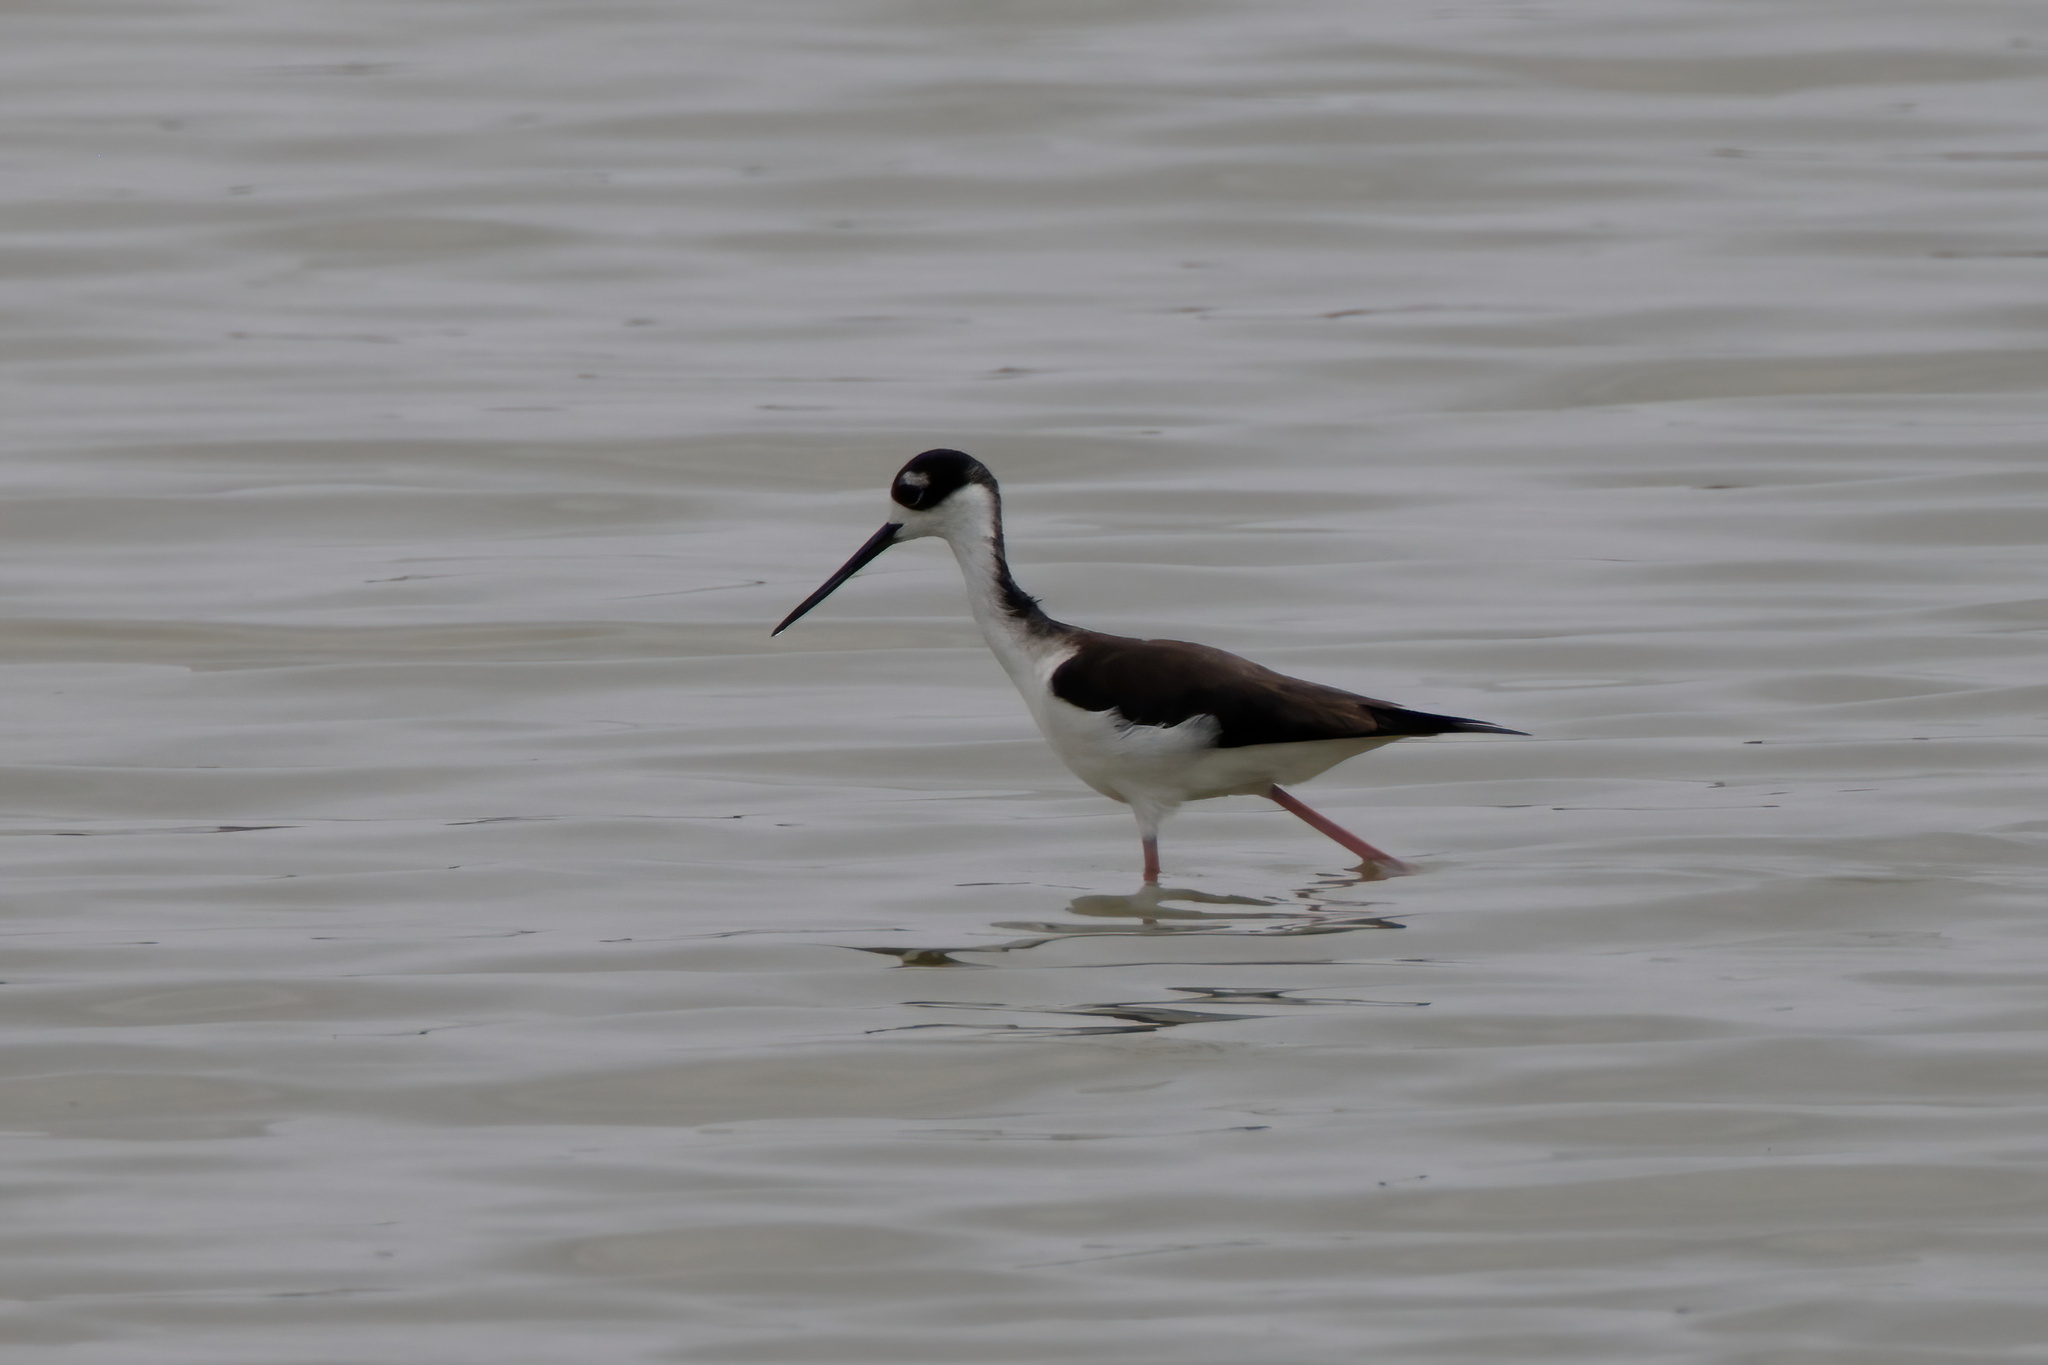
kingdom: Animalia
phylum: Chordata
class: Aves
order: Charadriiformes
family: Recurvirostridae
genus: Himantopus
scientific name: Himantopus mexicanus
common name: Black-necked stilt
